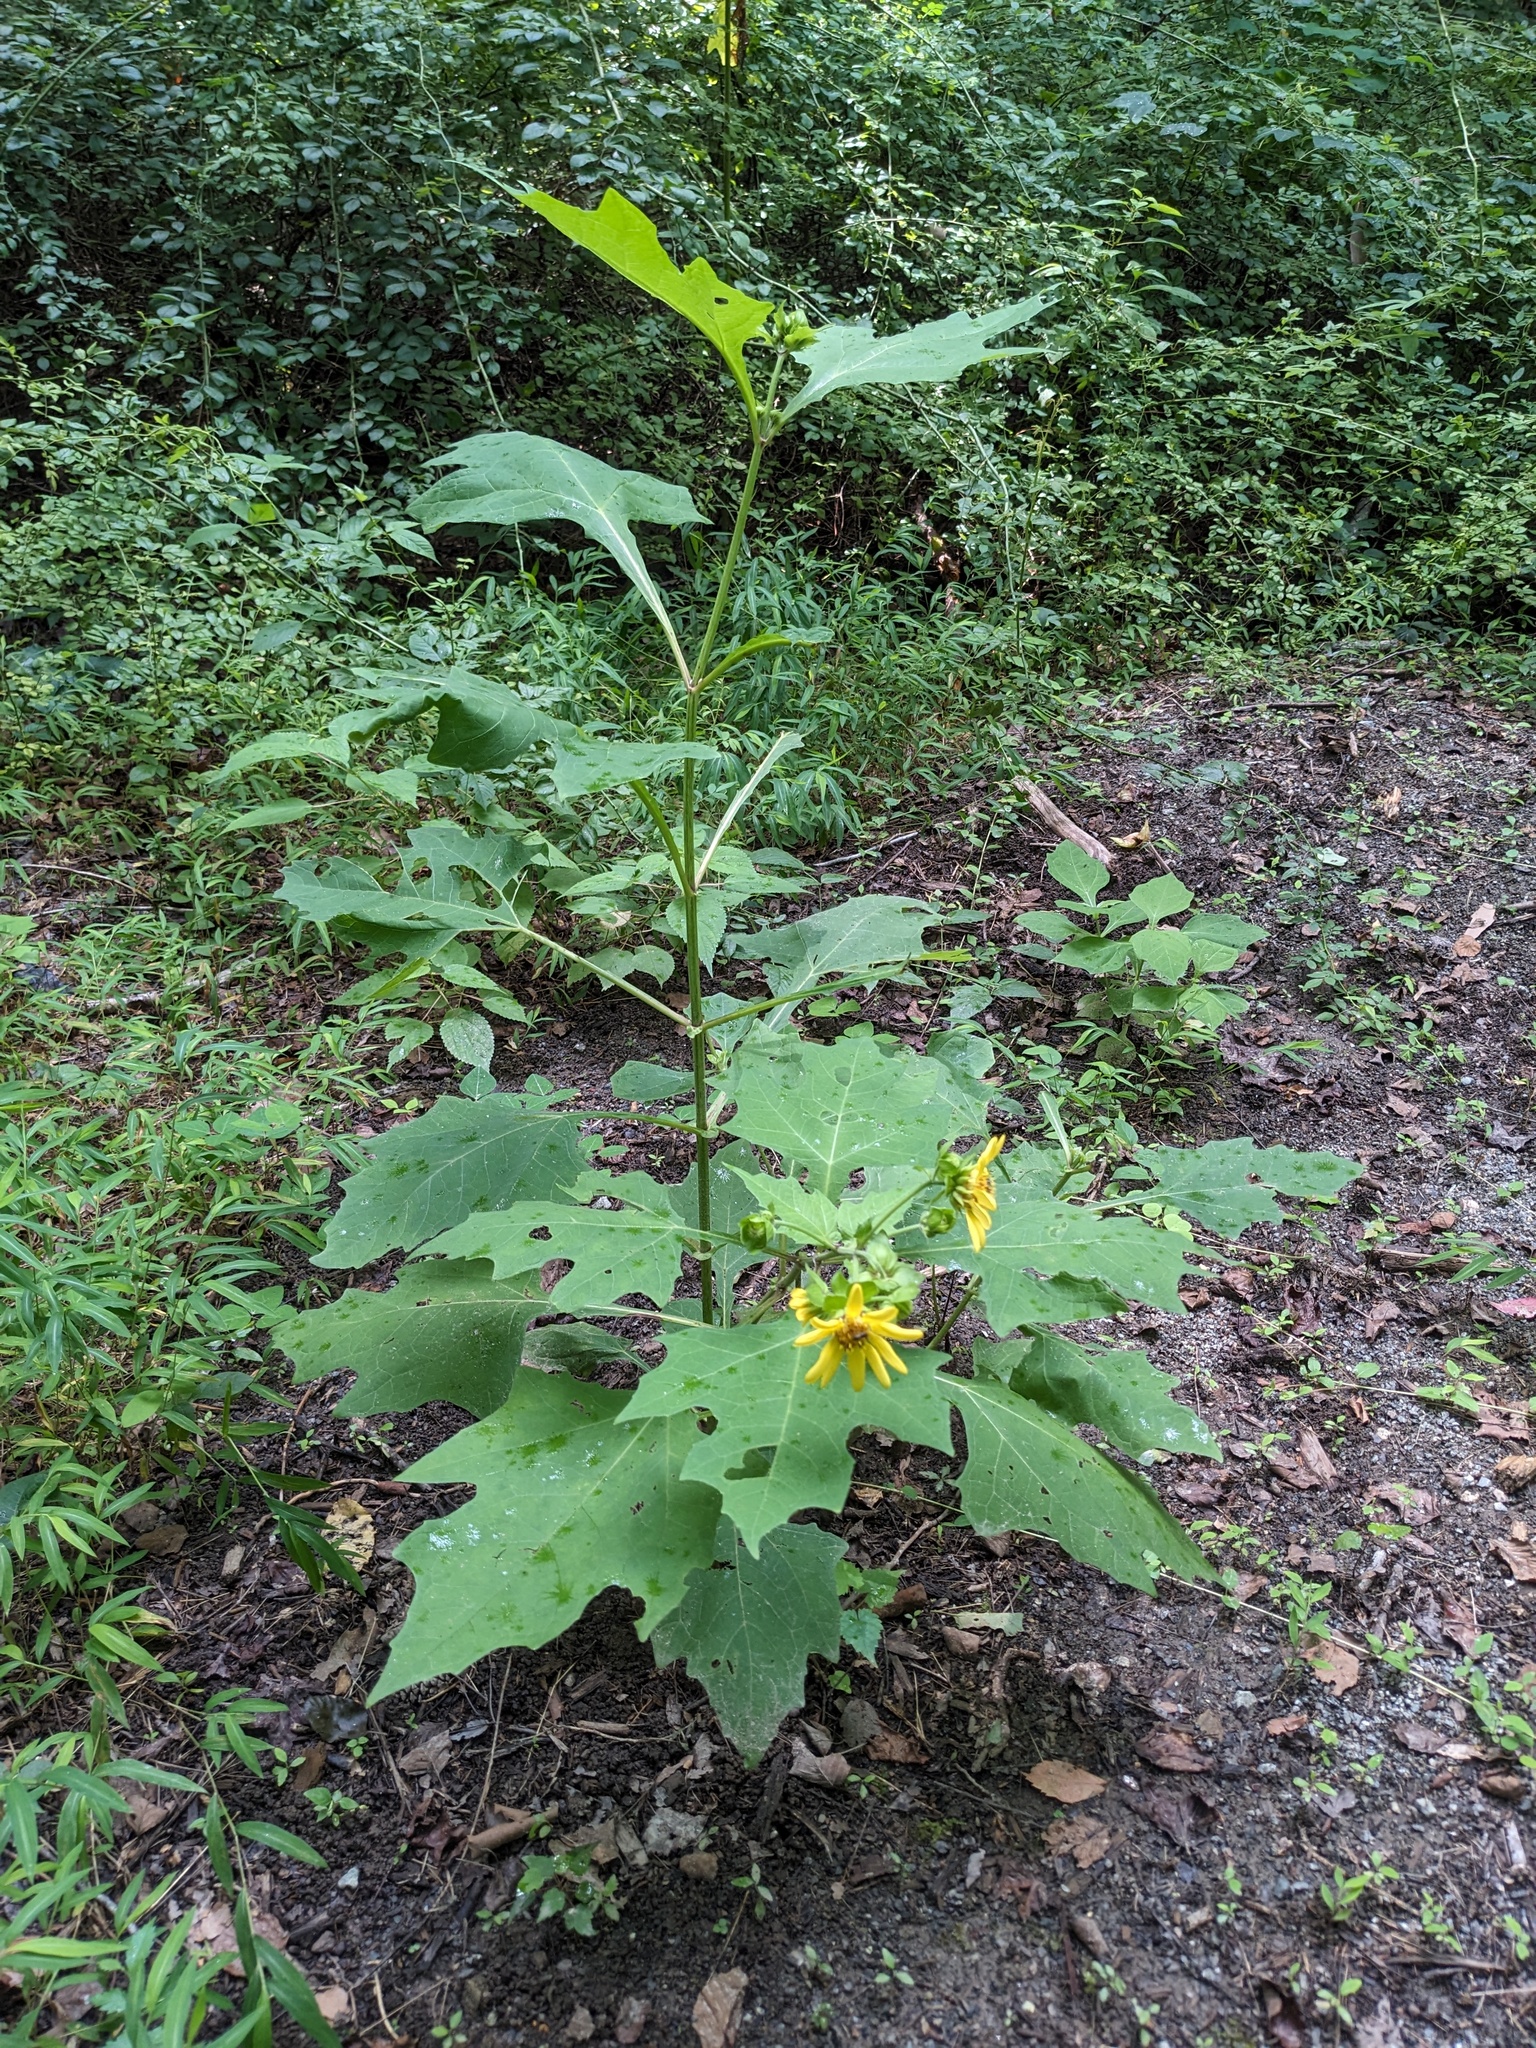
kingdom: Plantae
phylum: Tracheophyta
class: Magnoliopsida
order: Asterales
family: Asteraceae
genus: Smallanthus
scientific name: Smallanthus uvedalia
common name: Bear's-foot
